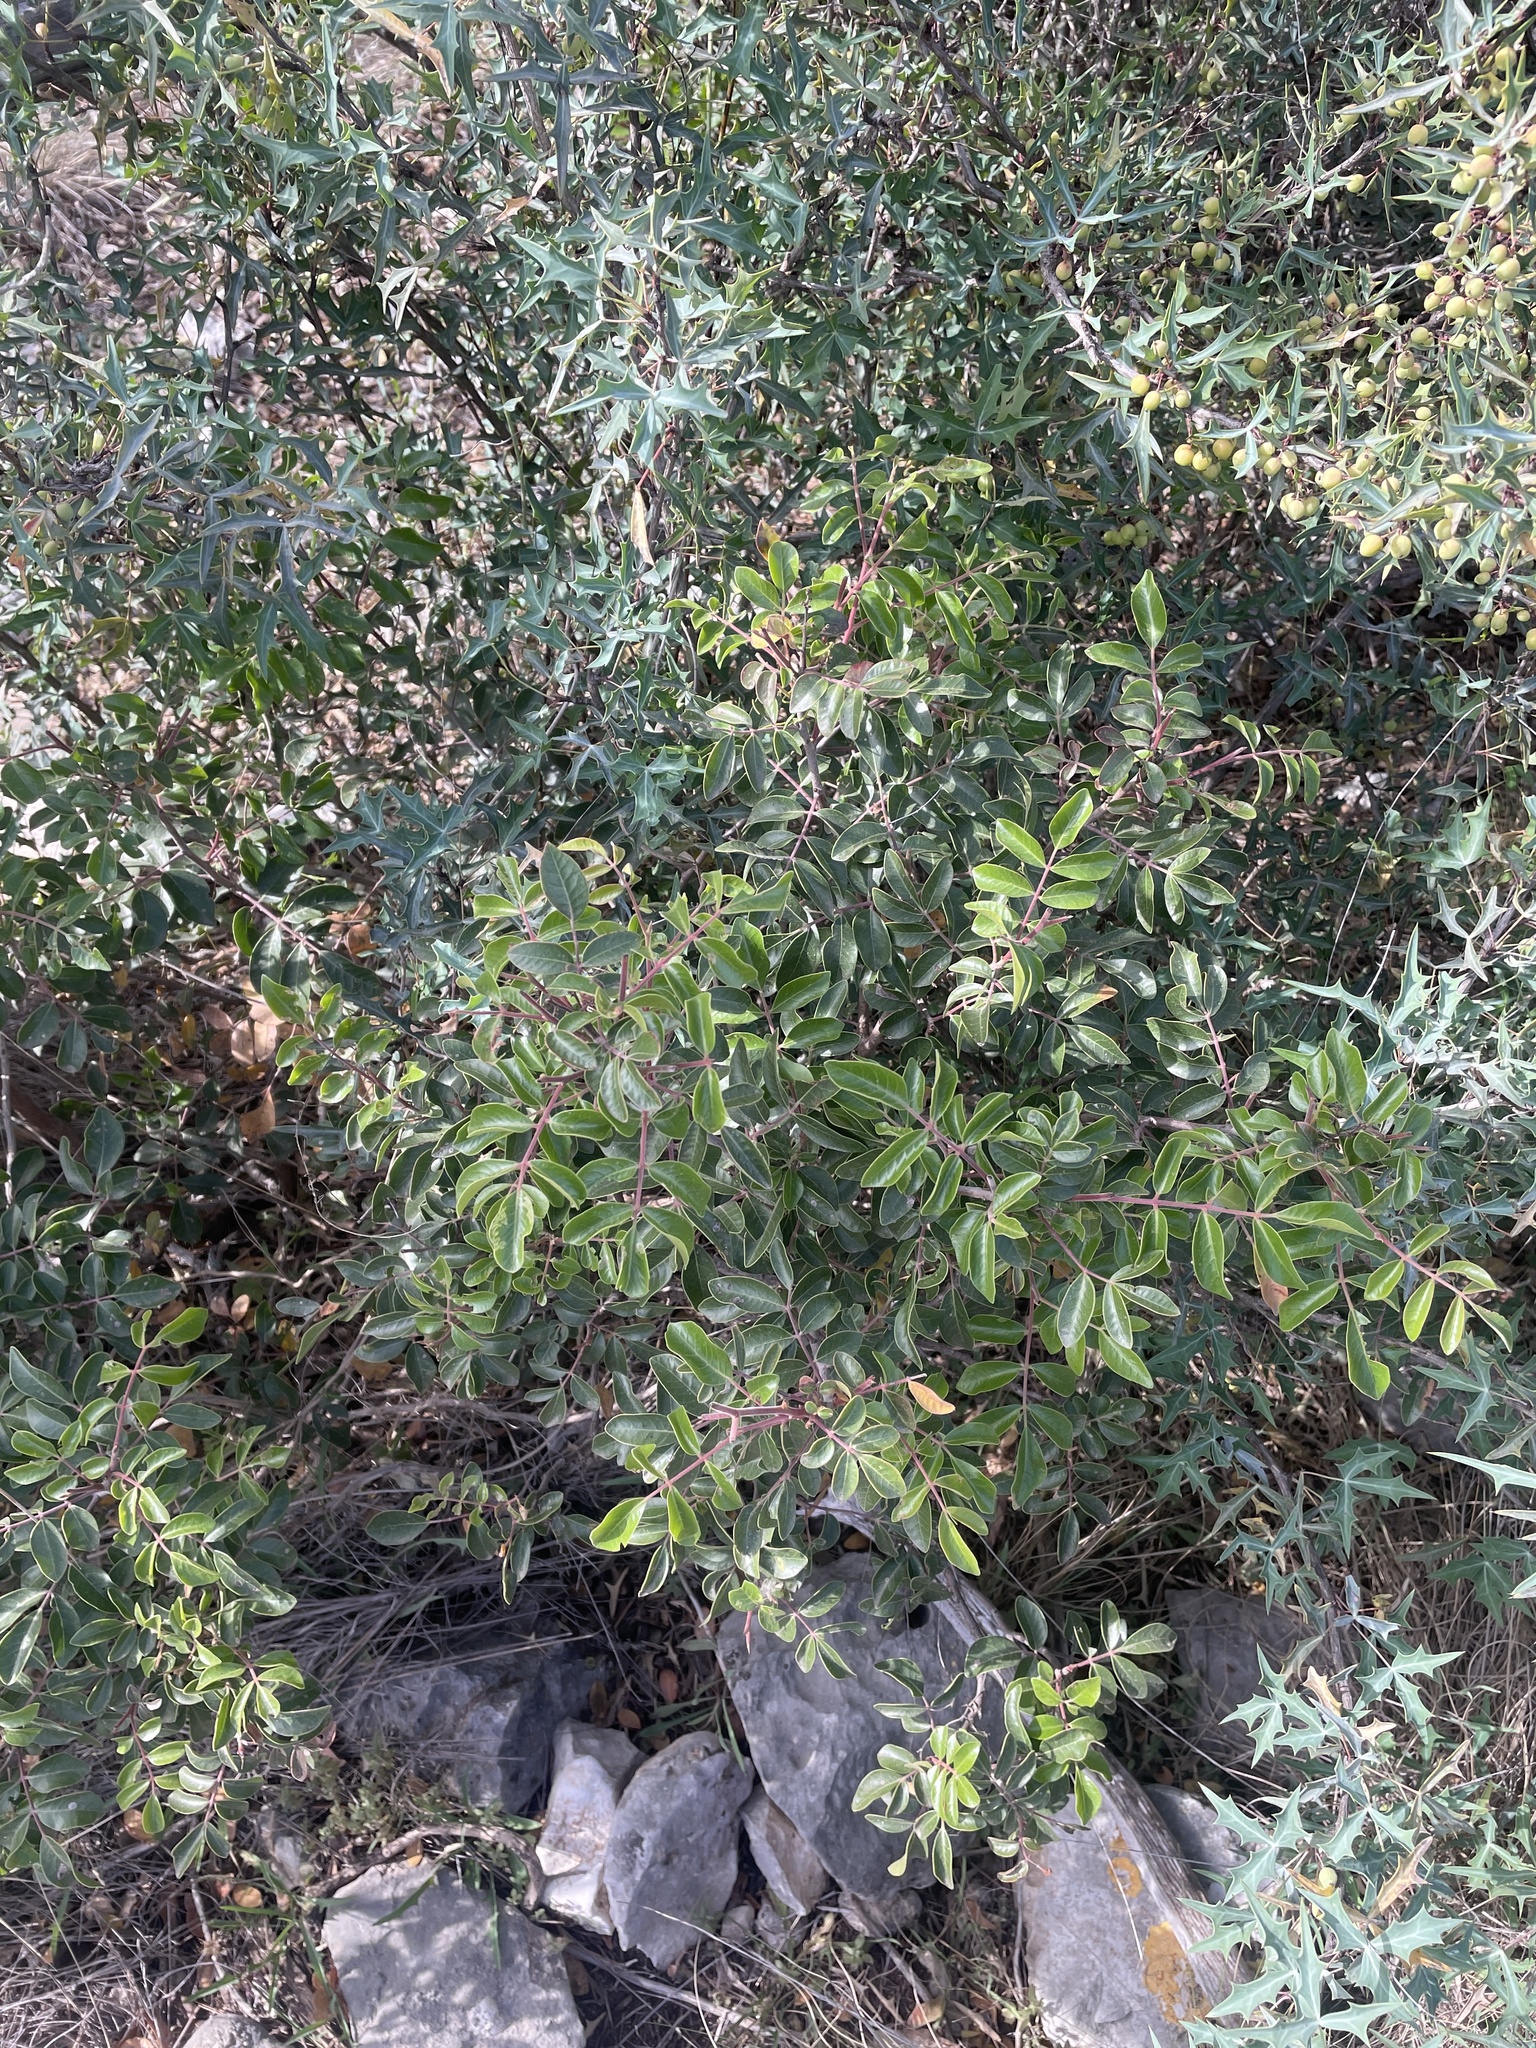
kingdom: Plantae
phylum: Tracheophyta
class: Magnoliopsida
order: Sapindales
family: Anacardiaceae
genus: Rhus
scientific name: Rhus virens
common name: Evergreen sumac
